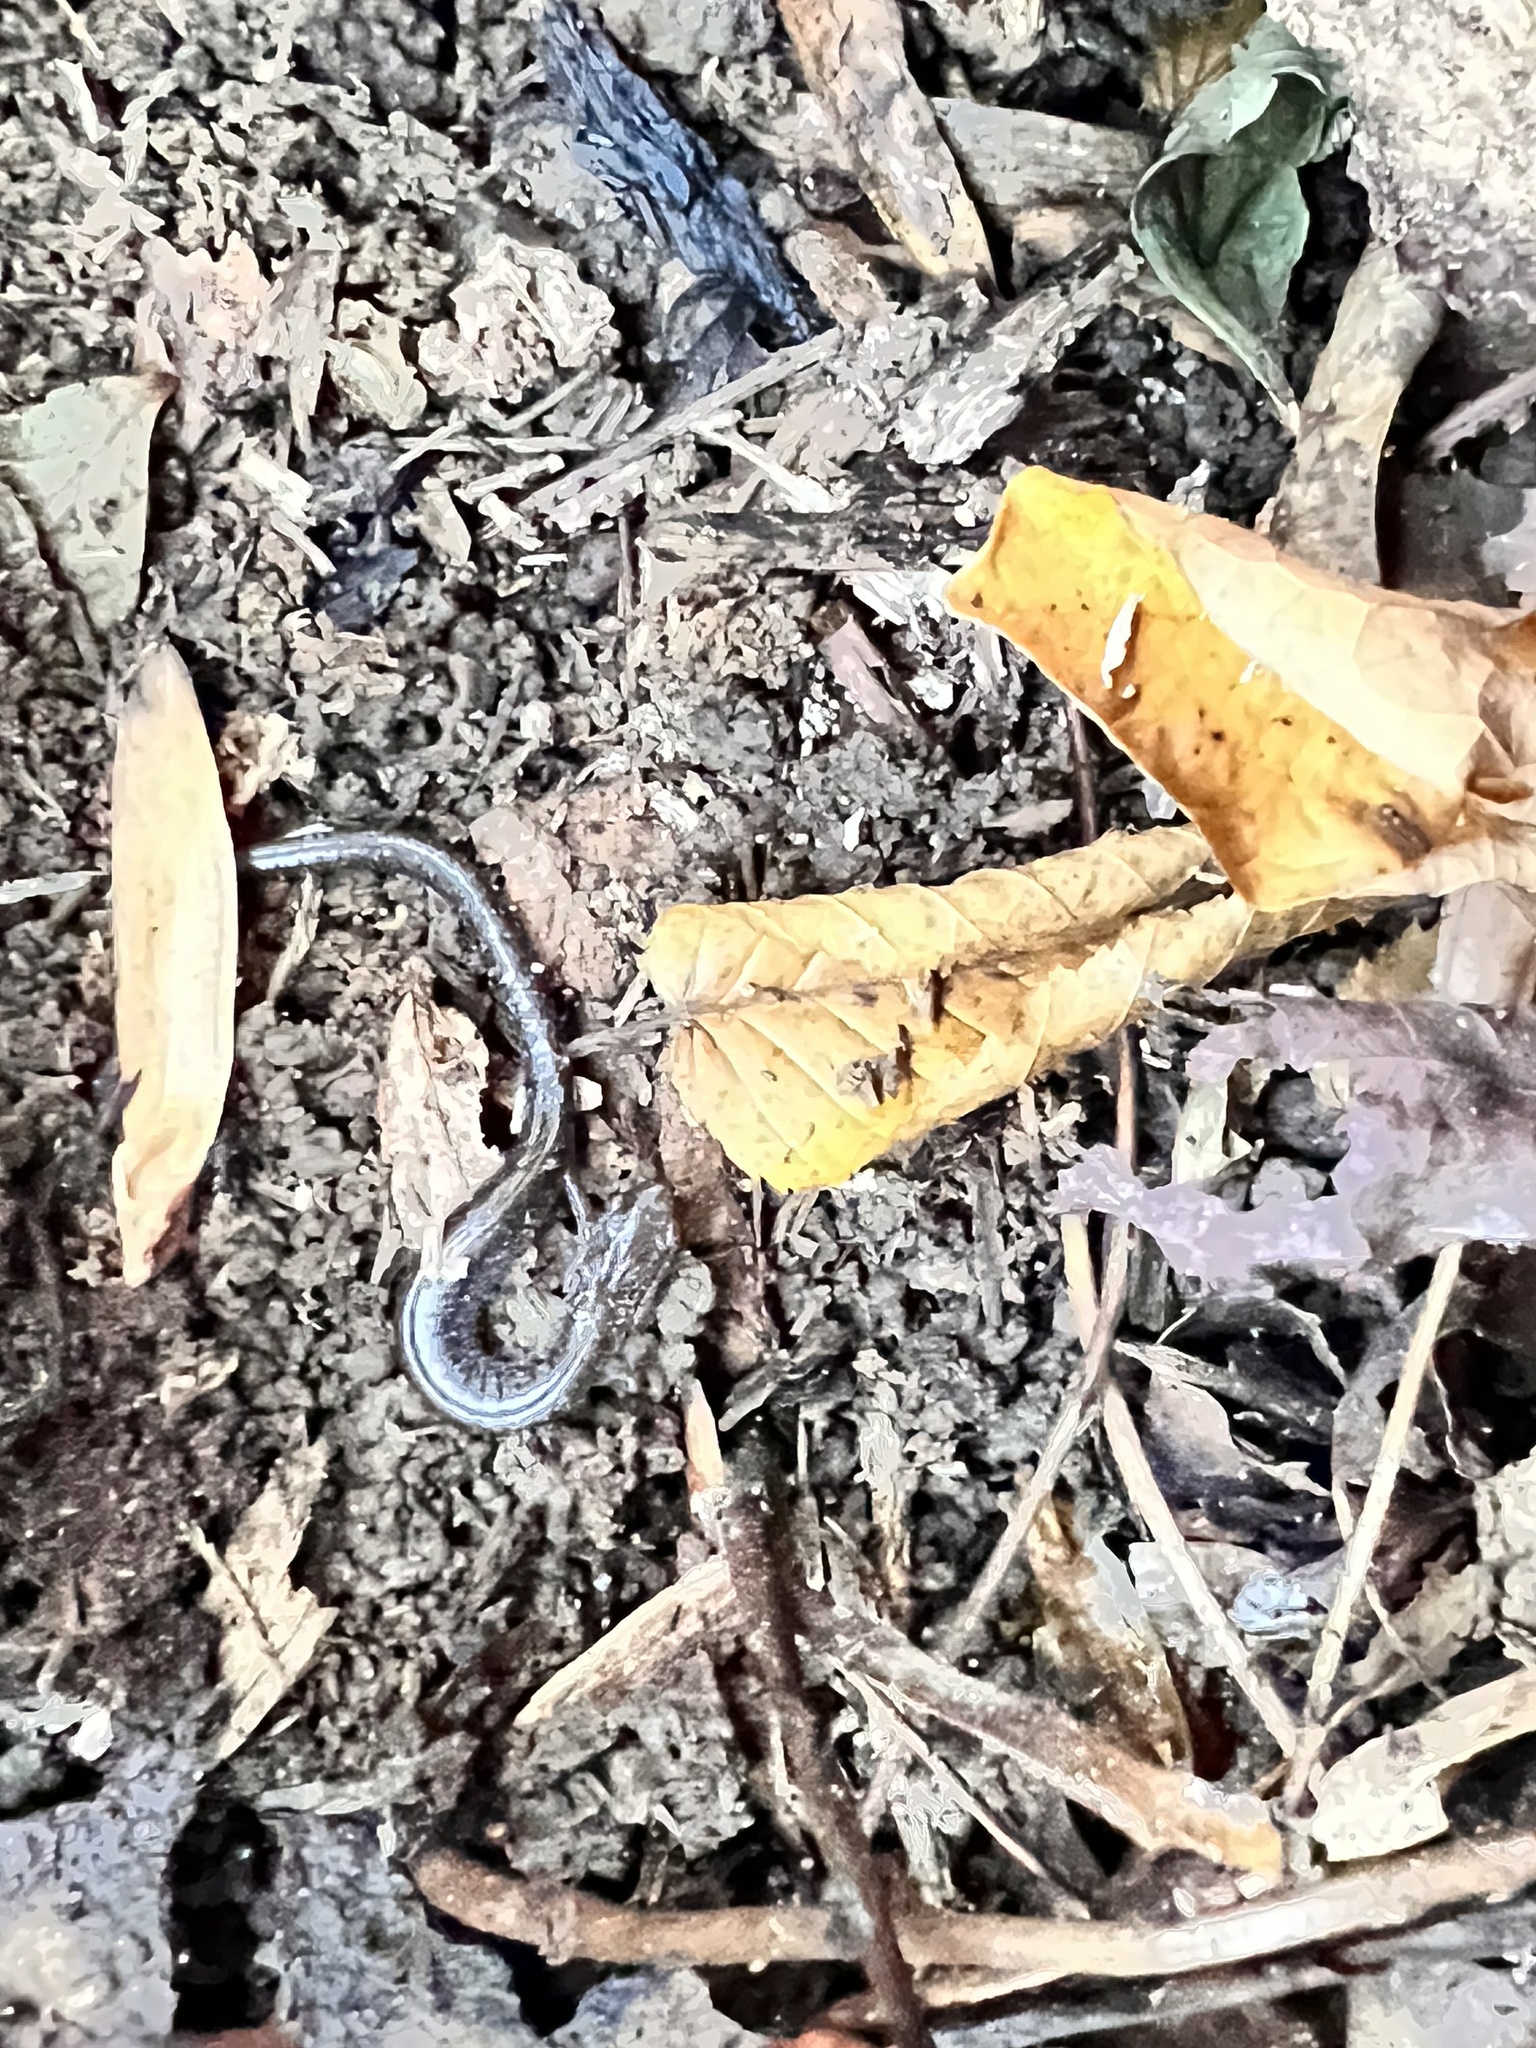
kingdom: Animalia
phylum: Chordata
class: Amphibia
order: Caudata
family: Plethodontidae
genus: Plethodon
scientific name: Plethodon cinereus
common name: Redback salamander
